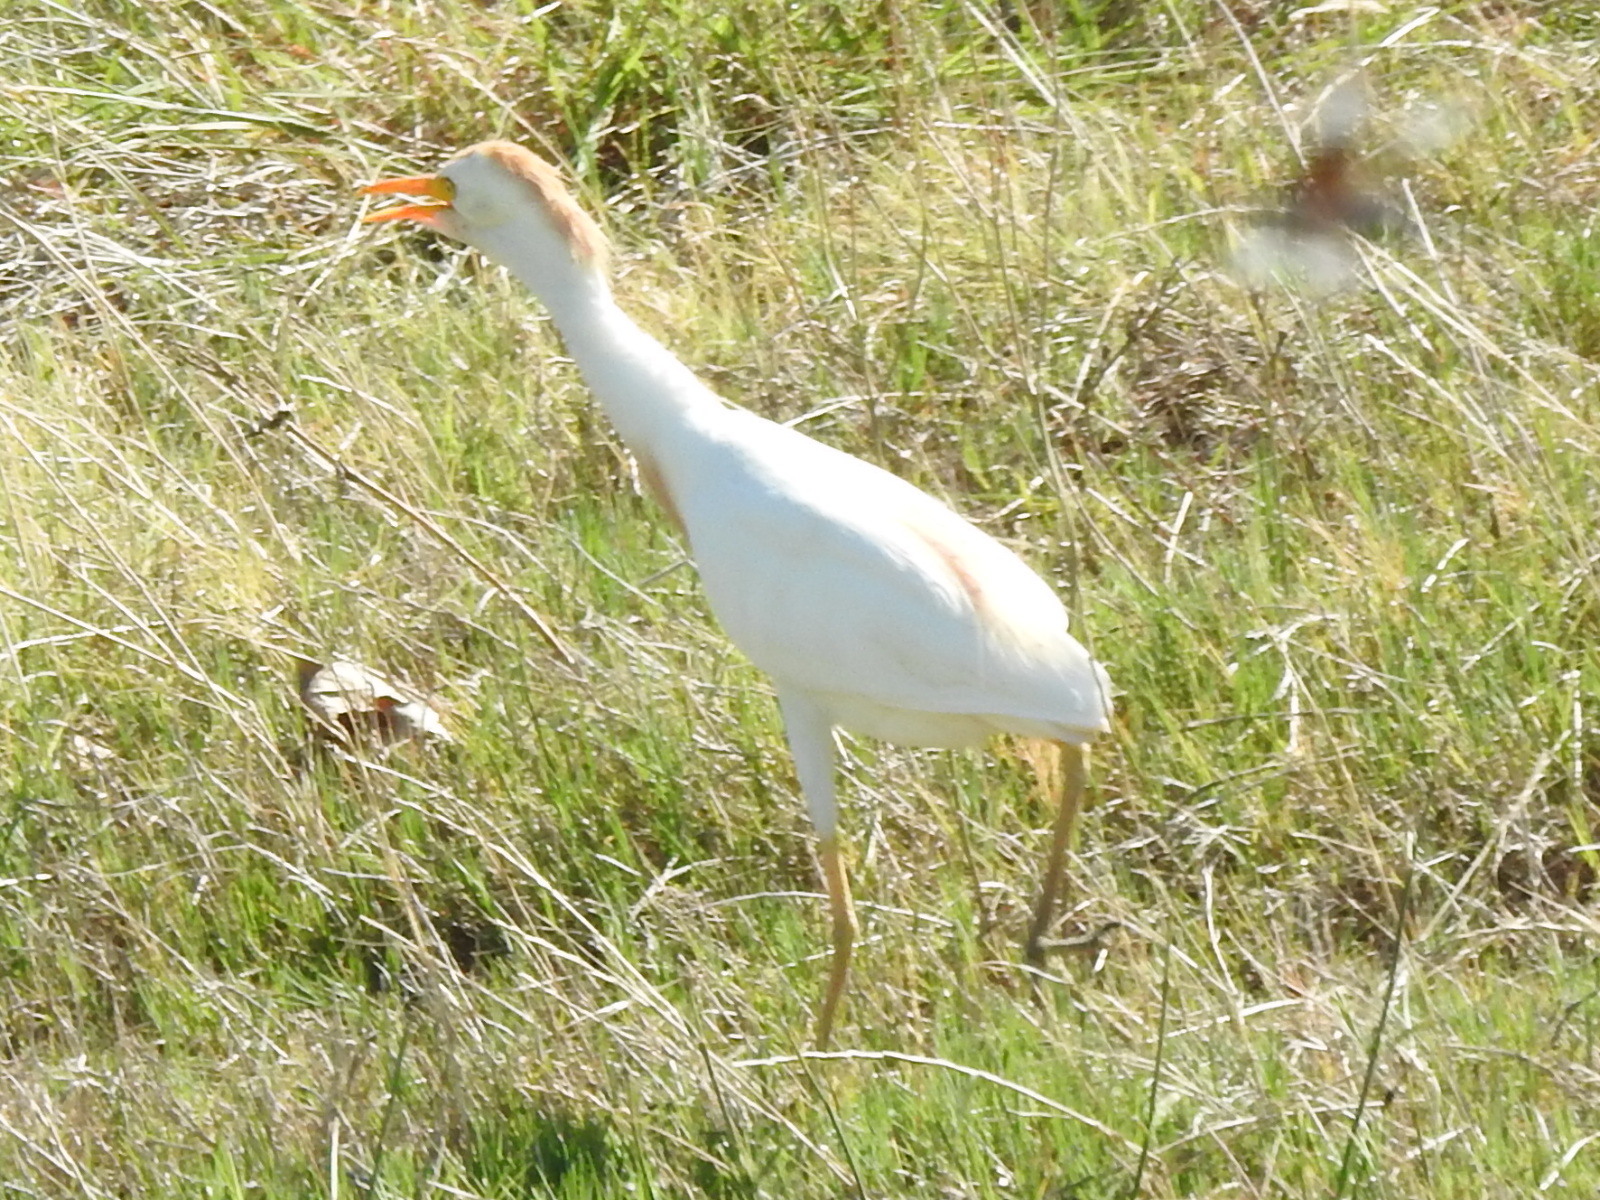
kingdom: Animalia
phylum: Chordata
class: Aves
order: Pelecaniformes
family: Ardeidae
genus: Bubulcus
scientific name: Bubulcus ibis
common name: Cattle egret
